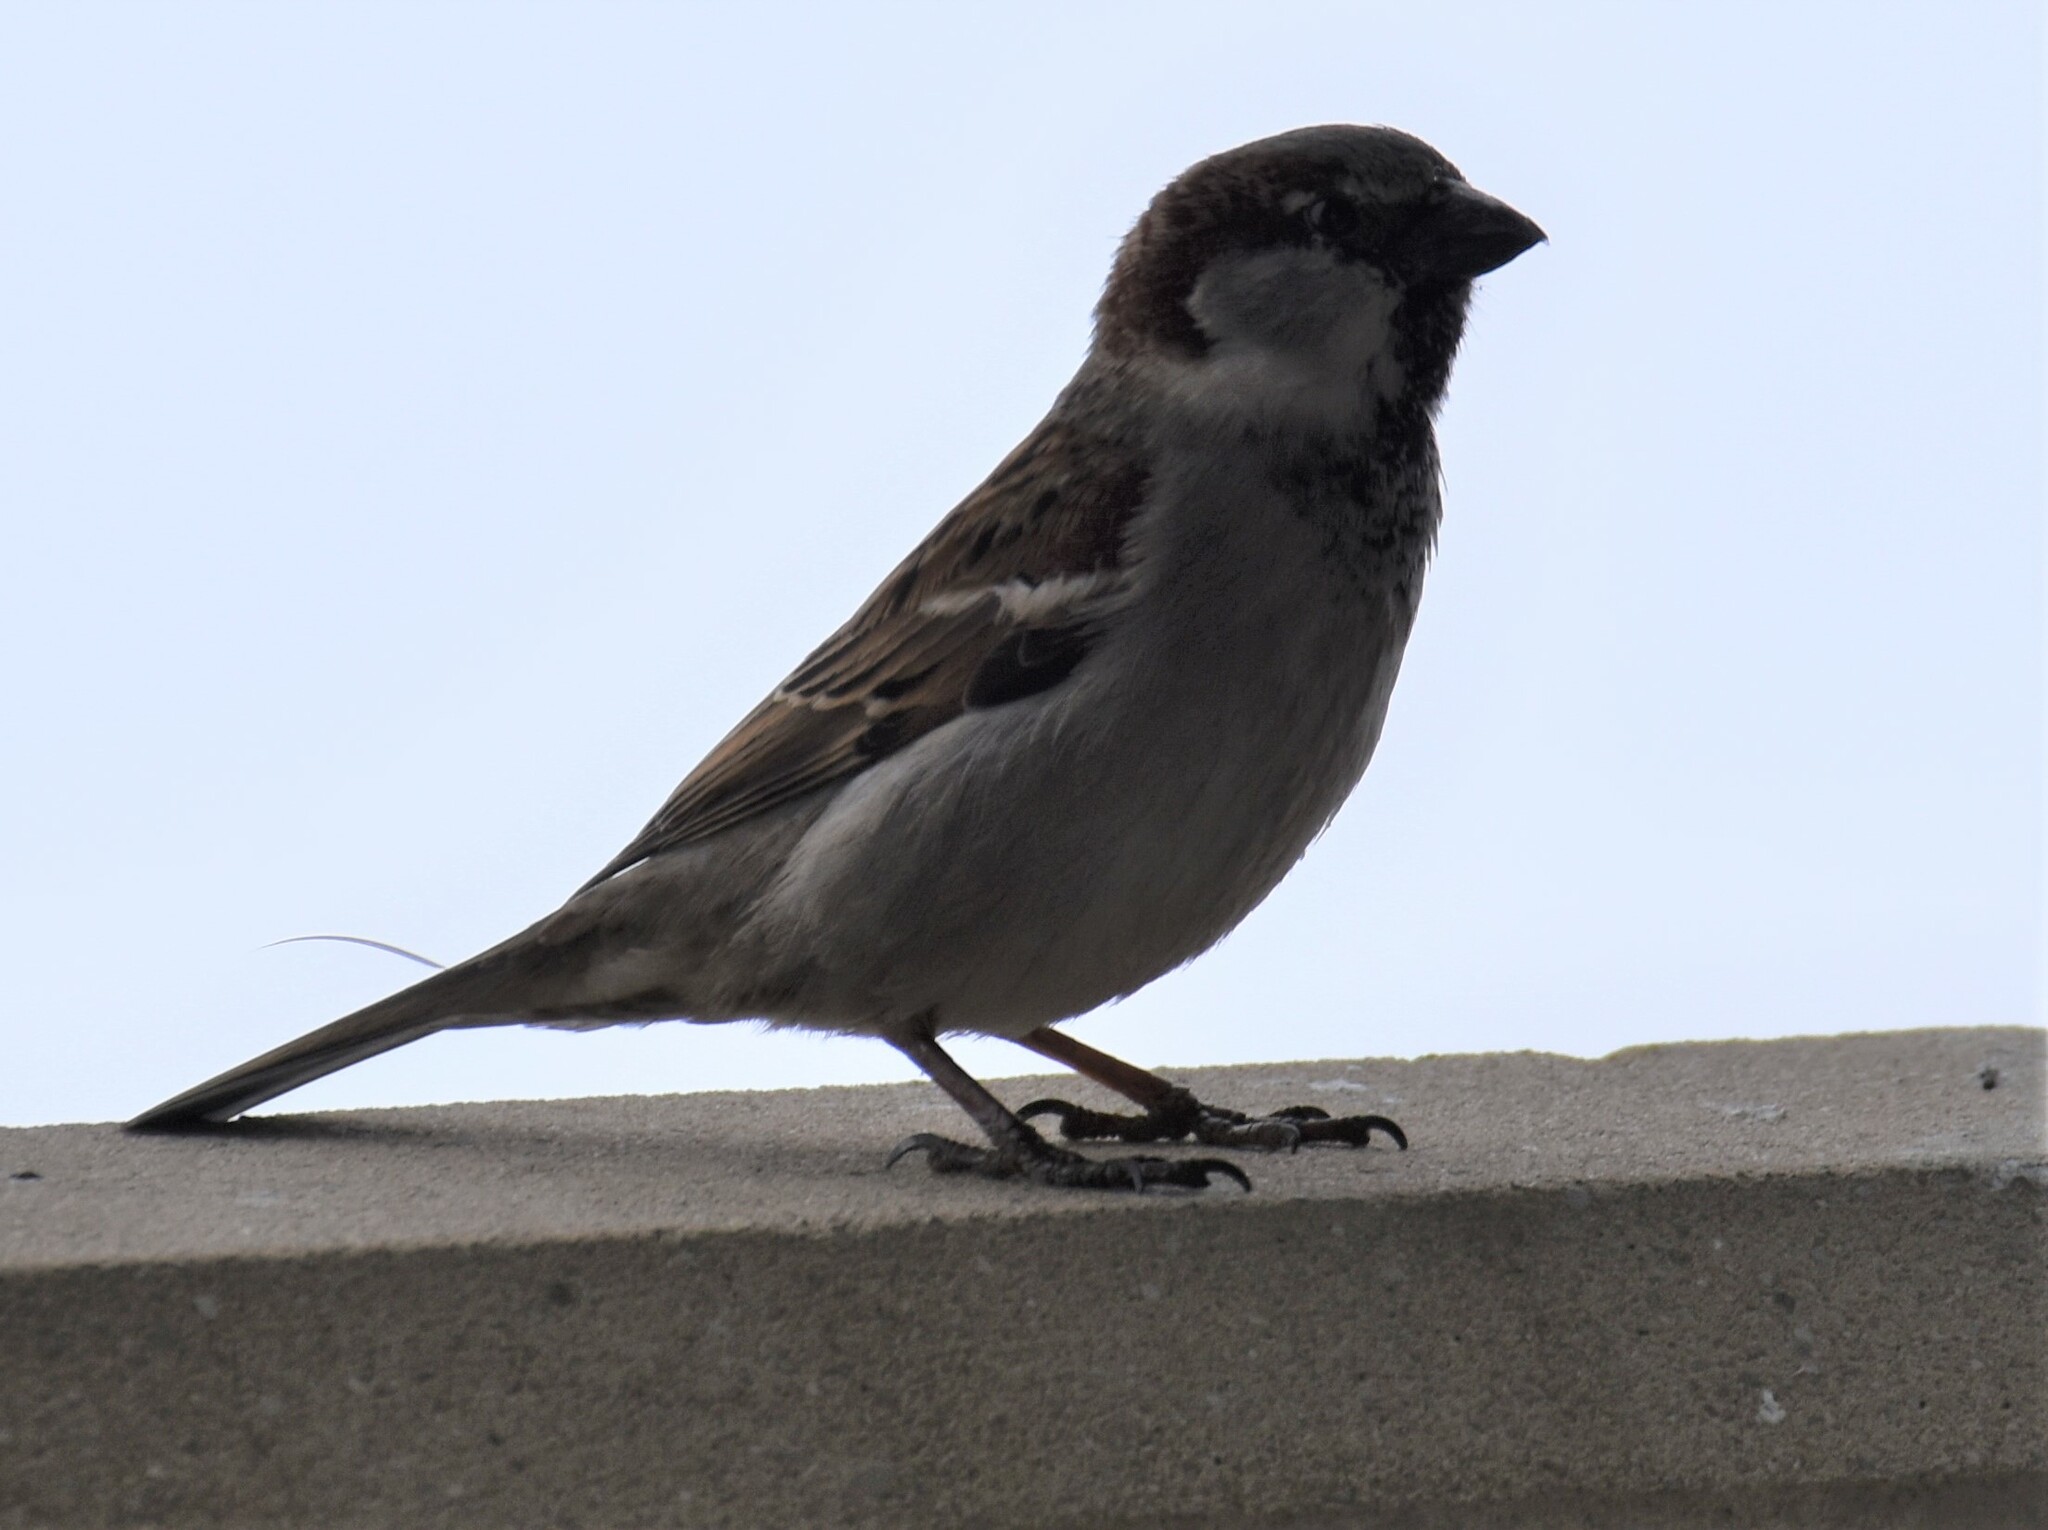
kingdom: Animalia
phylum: Chordata
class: Aves
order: Passeriformes
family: Passeridae
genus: Passer
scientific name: Passer domesticus
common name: House sparrow
